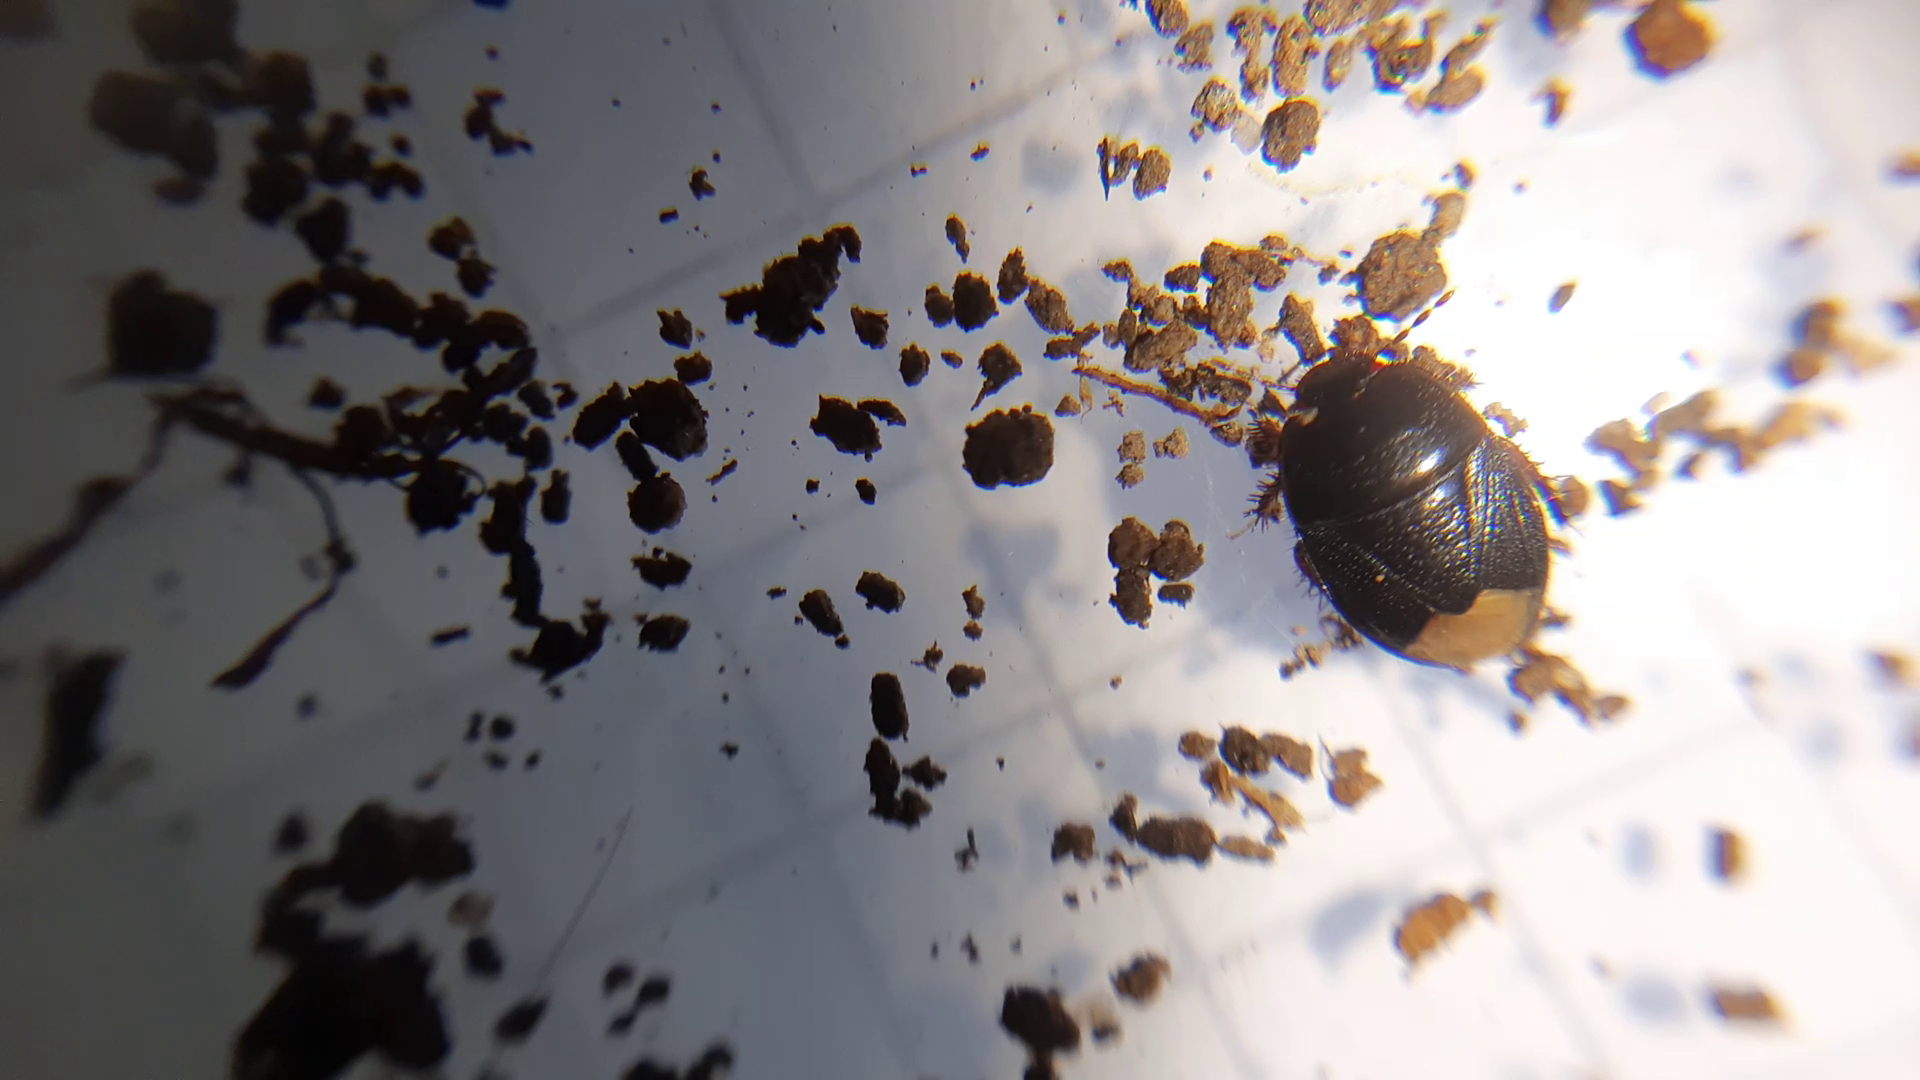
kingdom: Animalia
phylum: Arthropoda
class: Insecta
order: Hemiptera
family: Cydnidae
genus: Microporus
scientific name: Microporus nigrita
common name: Burrower bug
